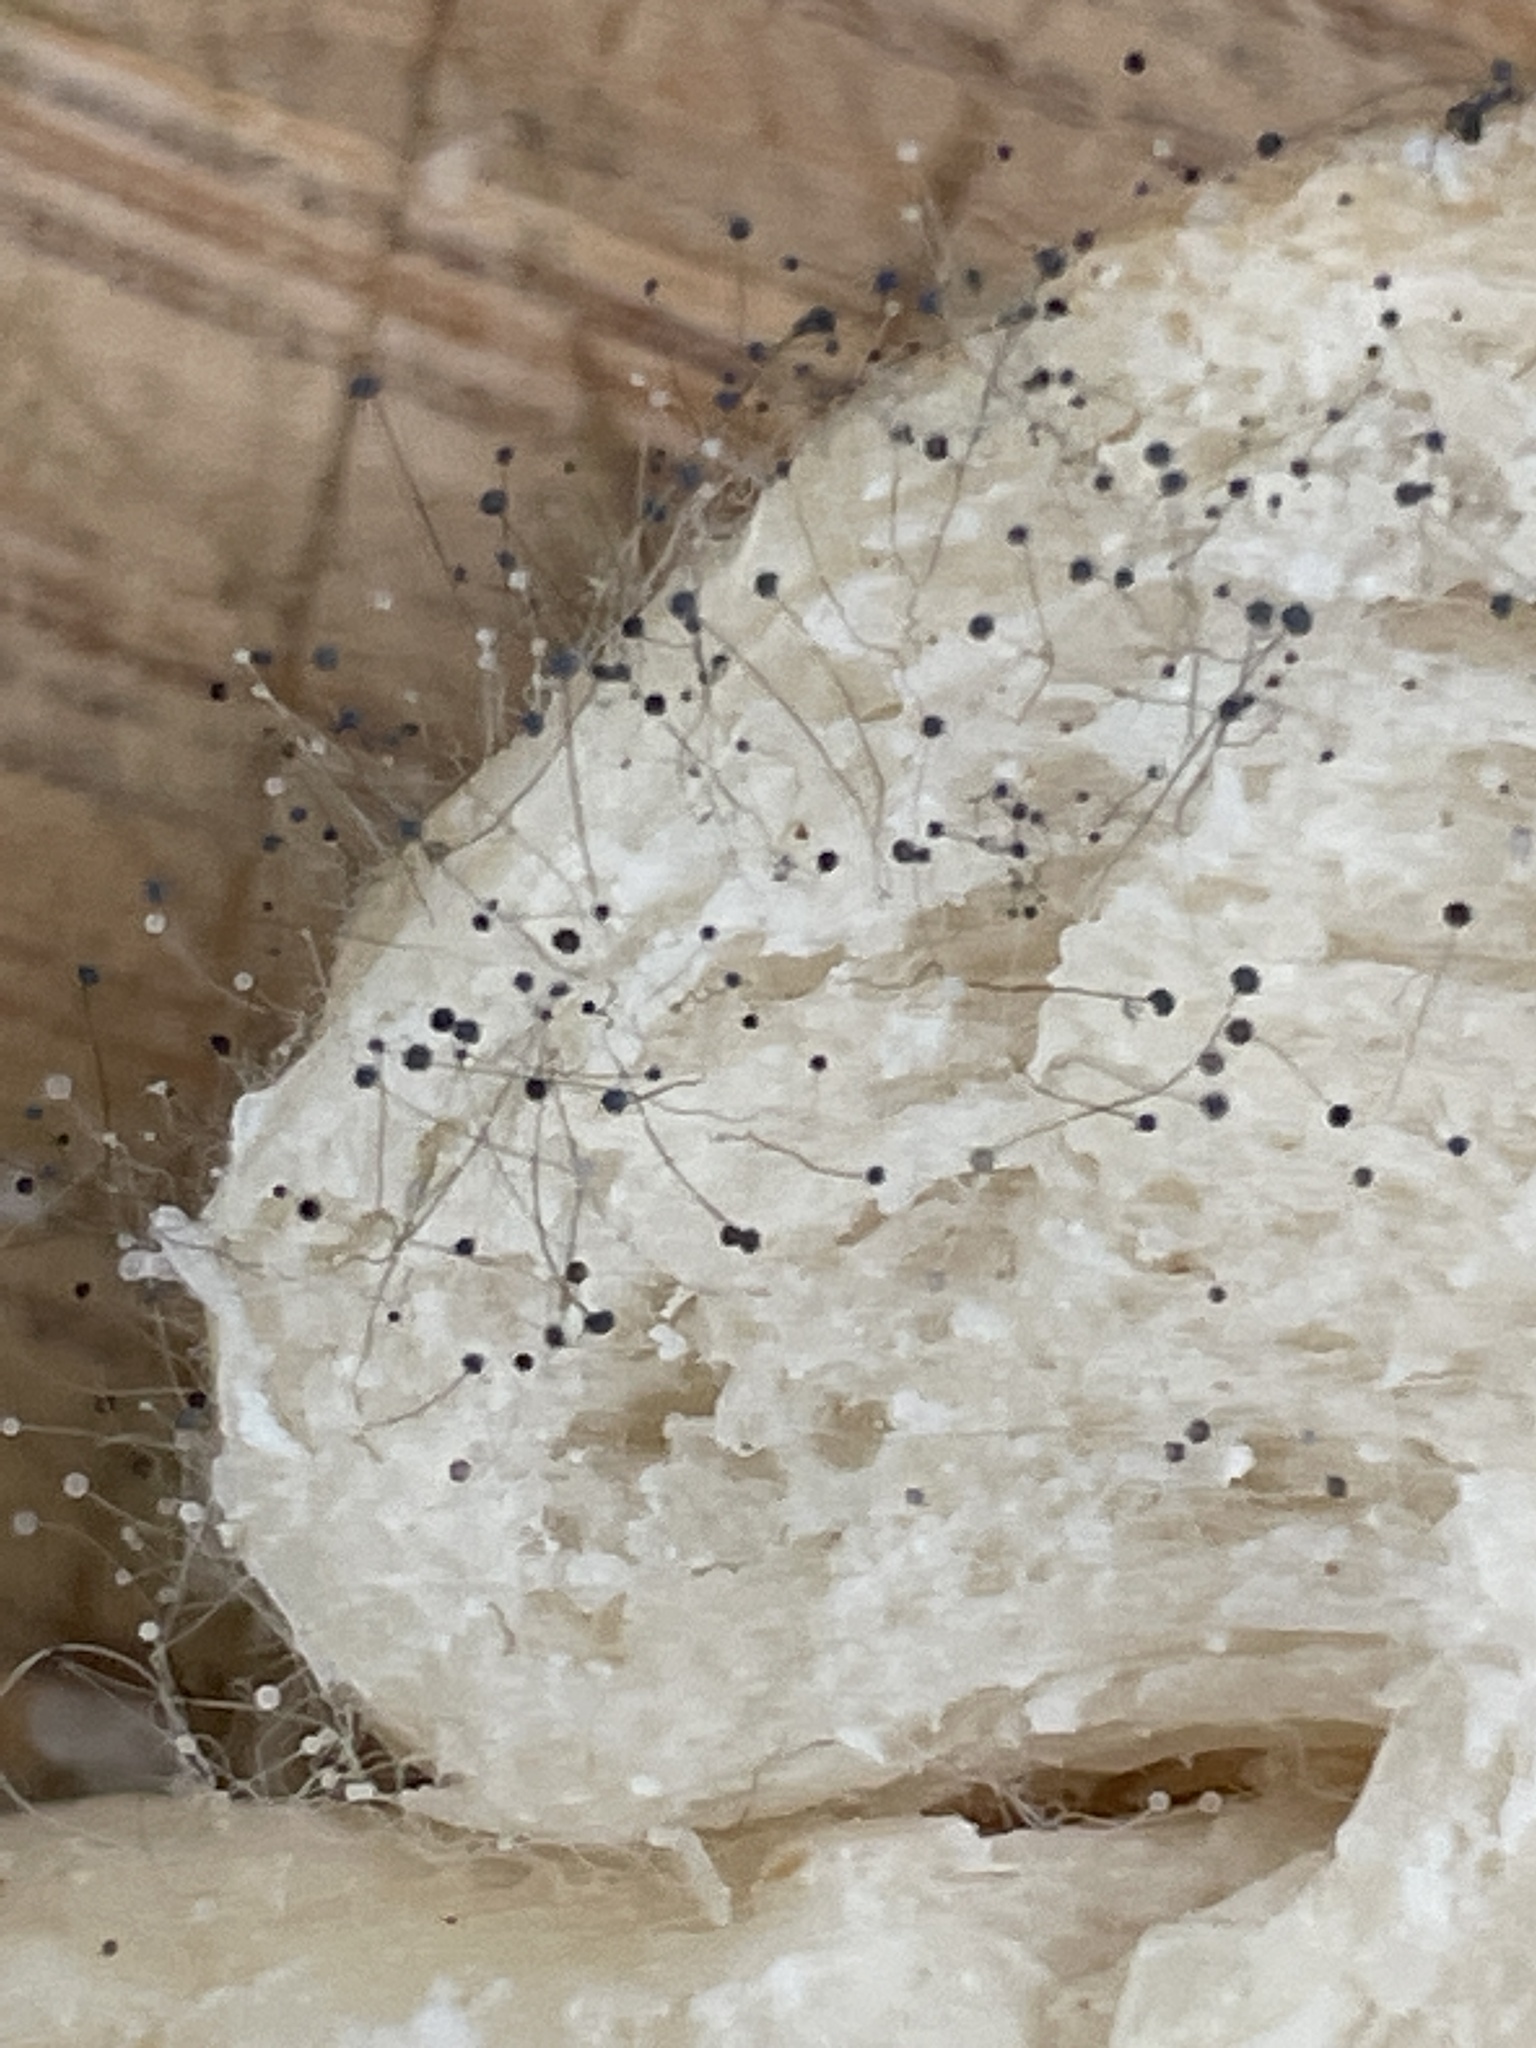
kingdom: Fungi
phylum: Mucoromycota
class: Mucoromycetes
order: Mucorales
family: Rhizopodaceae
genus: Rhizopus
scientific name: Rhizopus stolonifer
